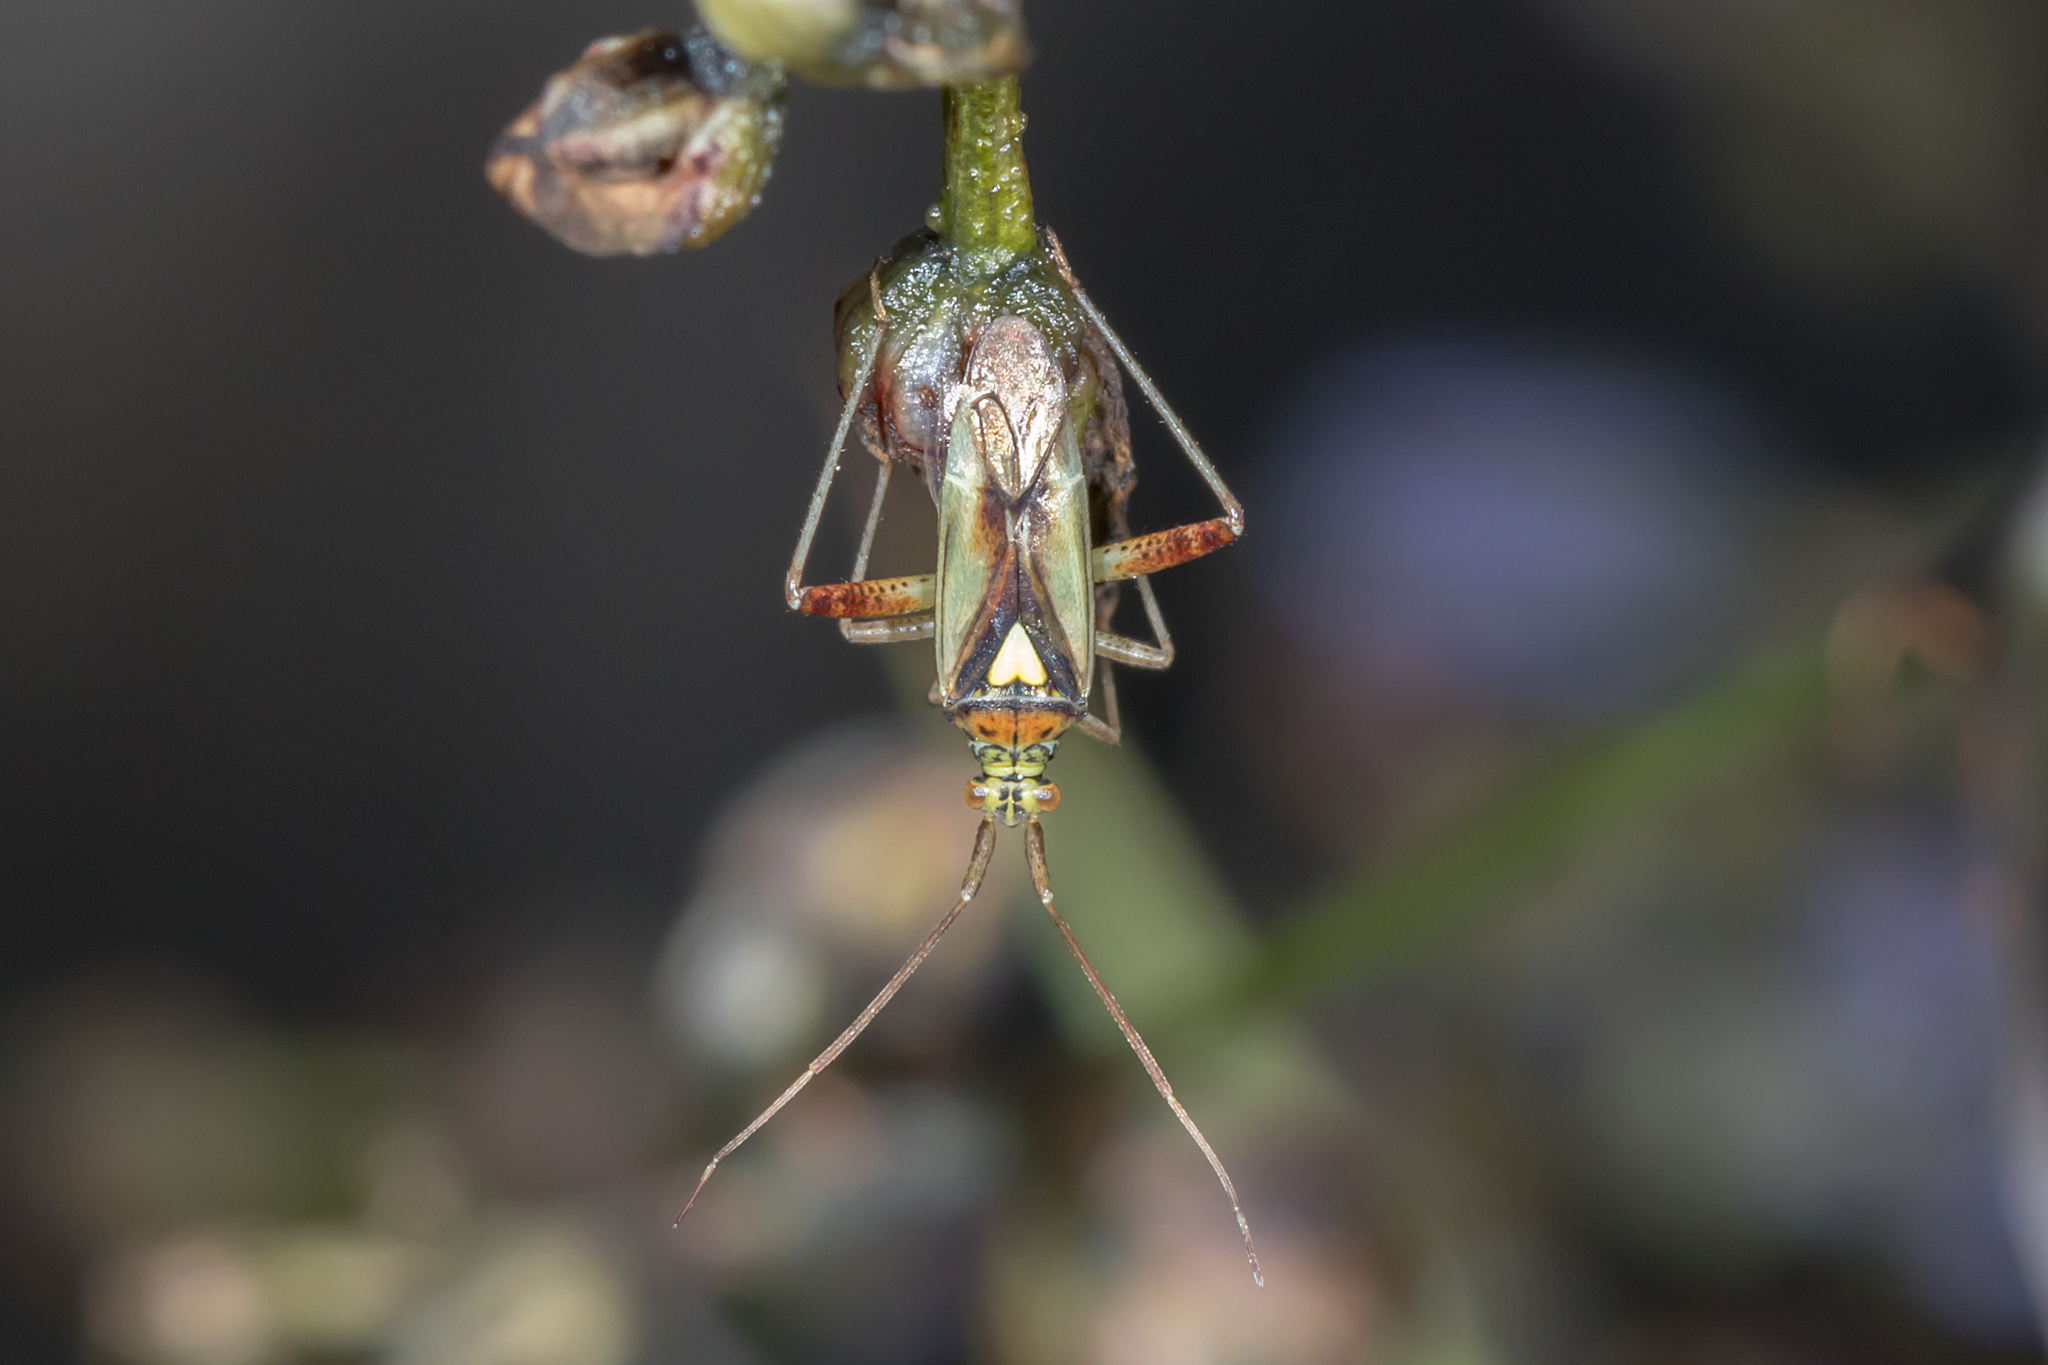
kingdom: Animalia
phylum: Arthropoda
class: Insecta
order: Hemiptera
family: Miridae
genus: Lincolnia
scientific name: Lincolnia lucernina
